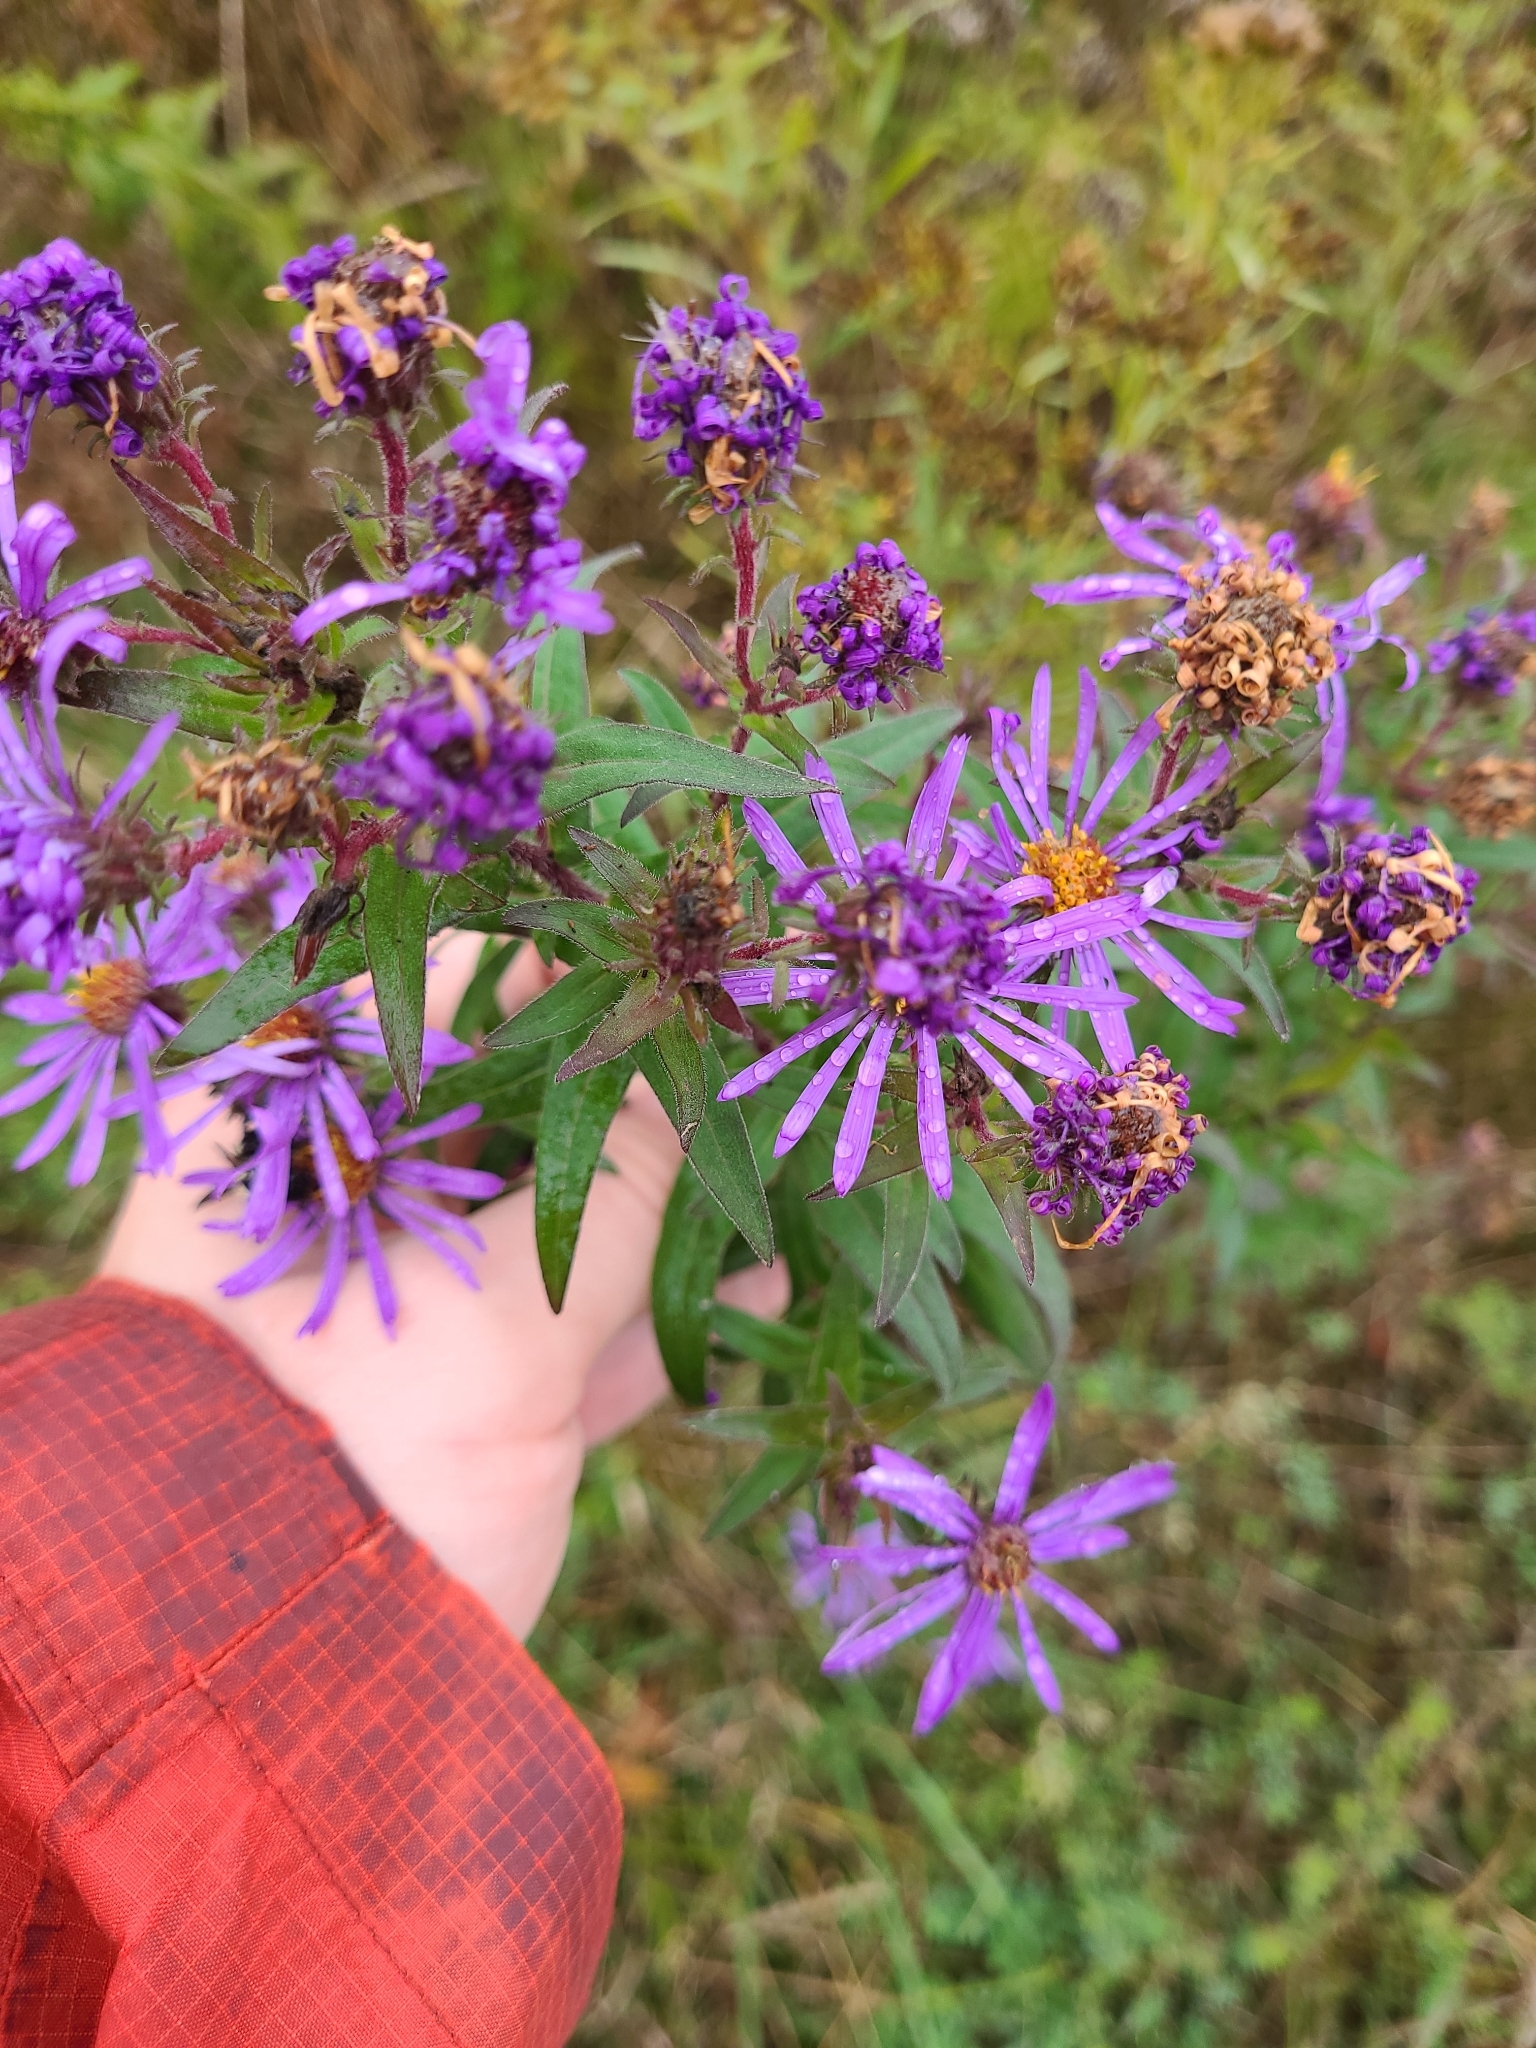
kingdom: Plantae
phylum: Tracheophyta
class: Magnoliopsida
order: Asterales
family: Asteraceae
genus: Symphyotrichum
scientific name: Symphyotrichum novae-angliae
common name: Michaelmas daisy
